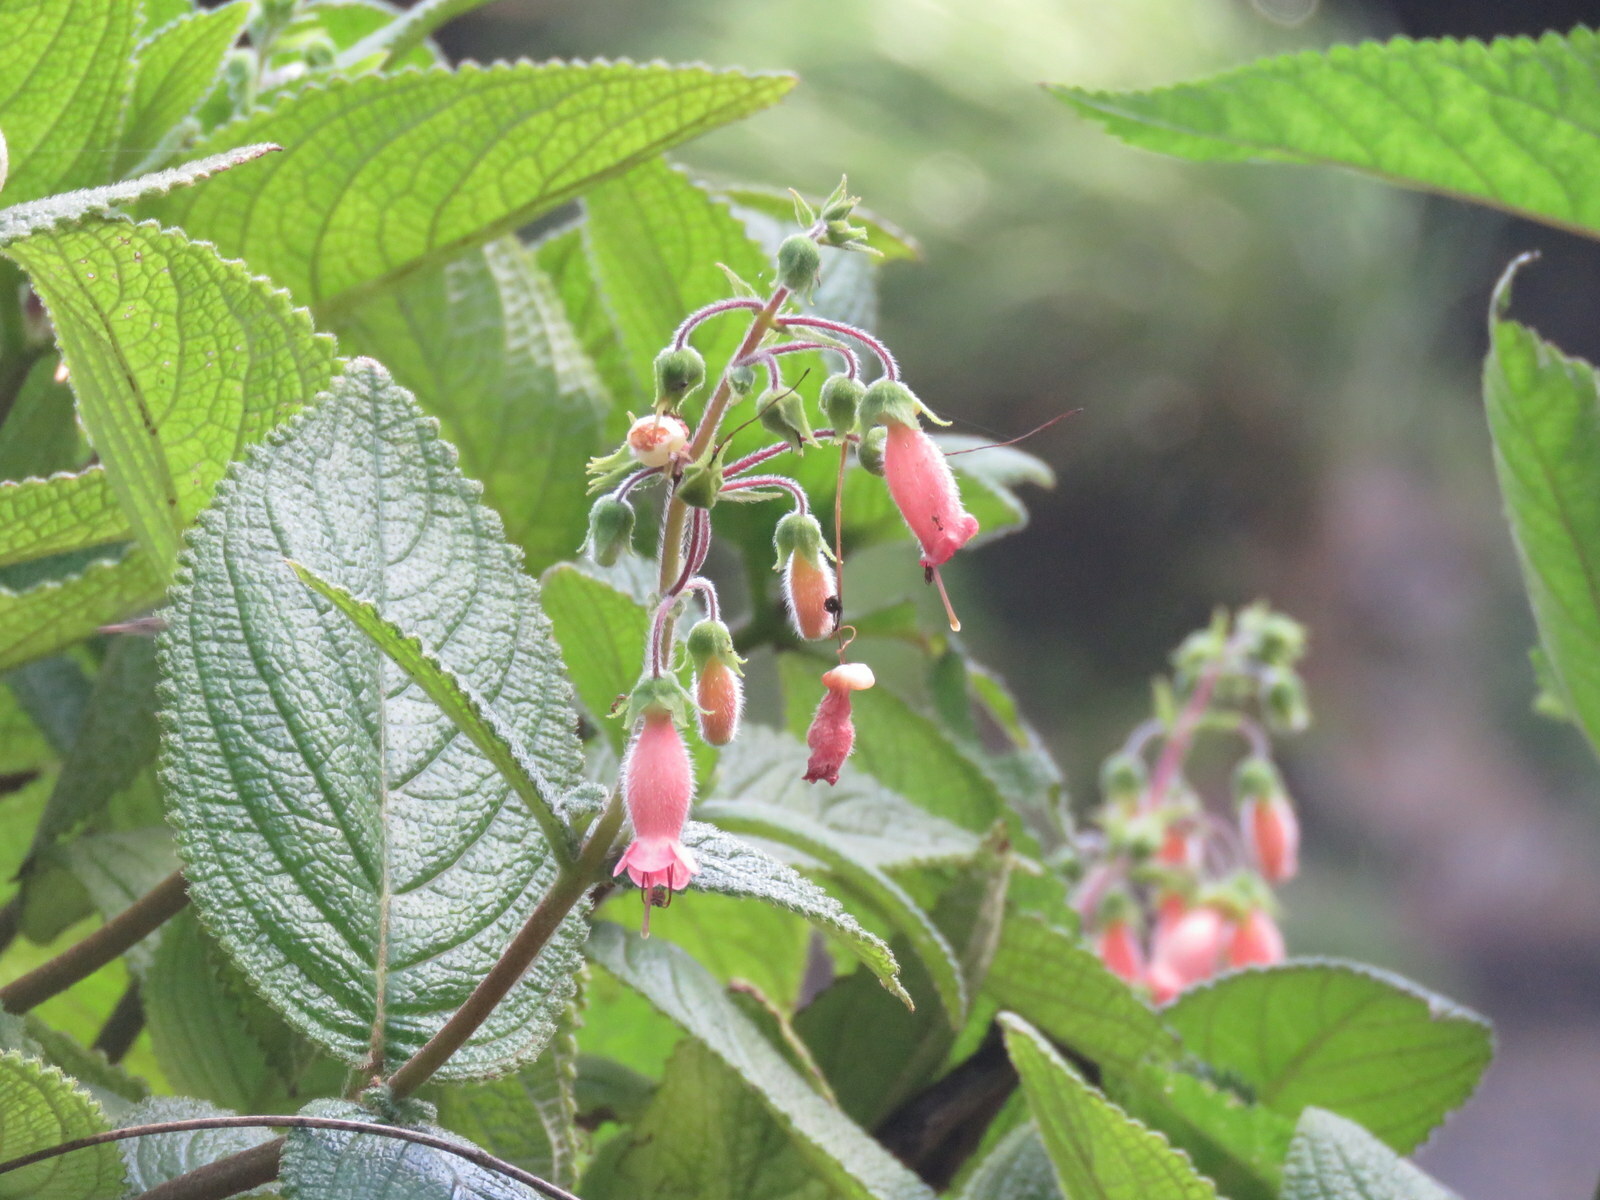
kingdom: Plantae
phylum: Tracheophyta
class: Magnoliopsida
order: Lamiales
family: Gesneriaceae
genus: Sinningia
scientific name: Sinningia sellovii
